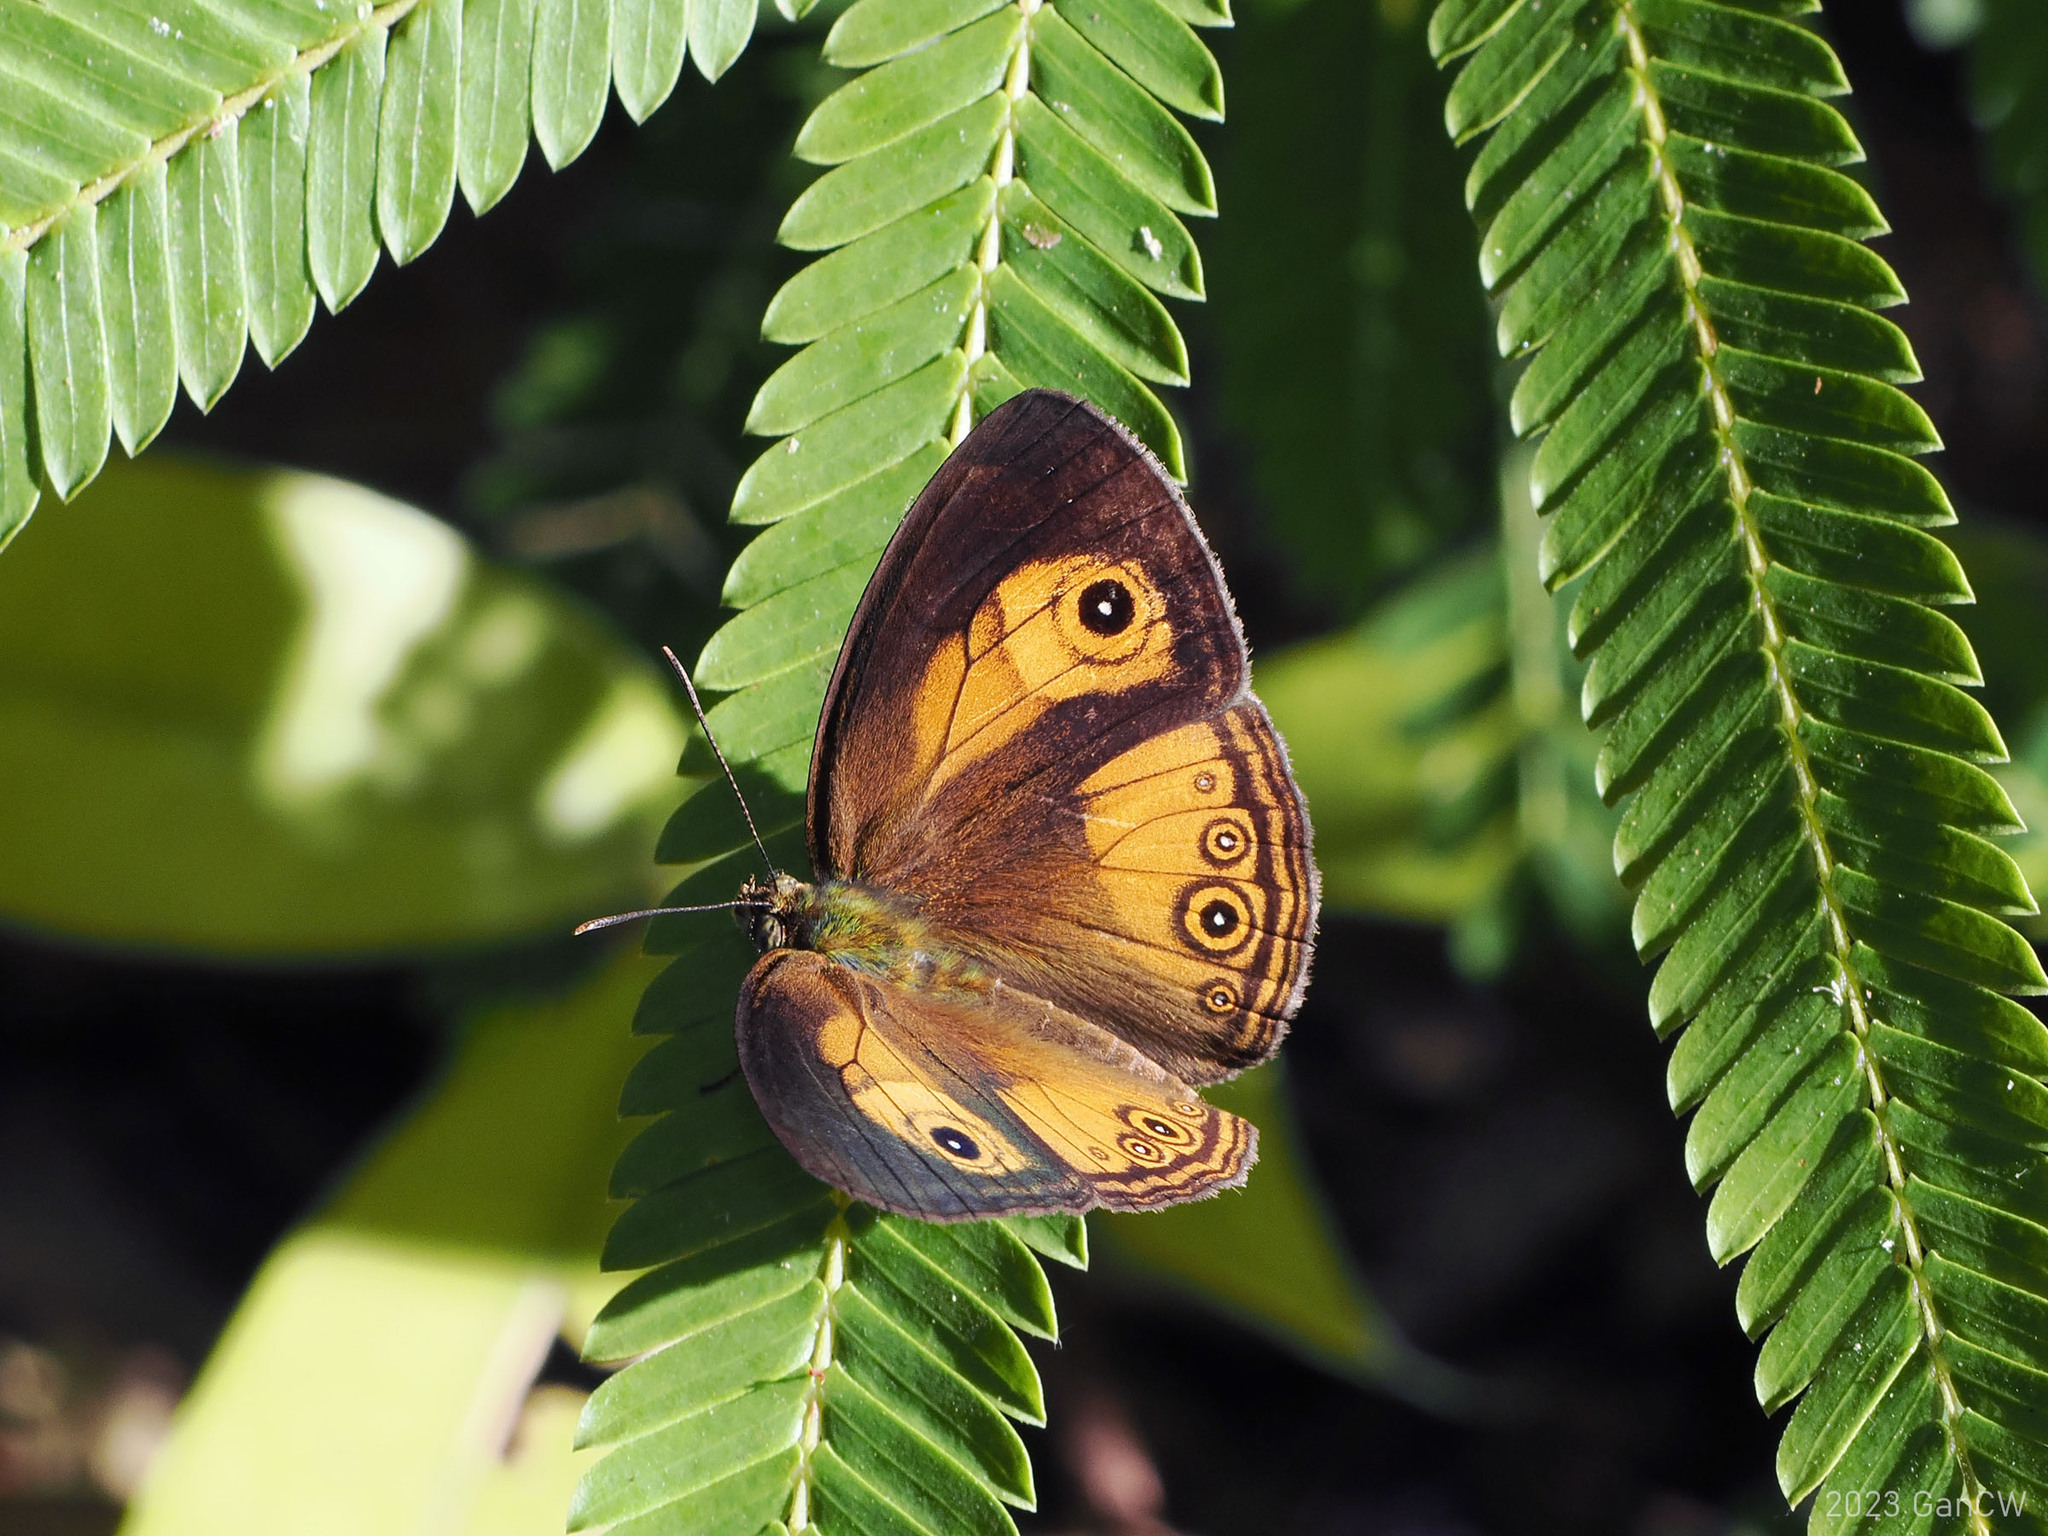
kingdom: Animalia
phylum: Arthropoda
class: Insecta
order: Lepidoptera
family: Nymphalidae
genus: Mycalesis
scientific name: Mycalesis ita
